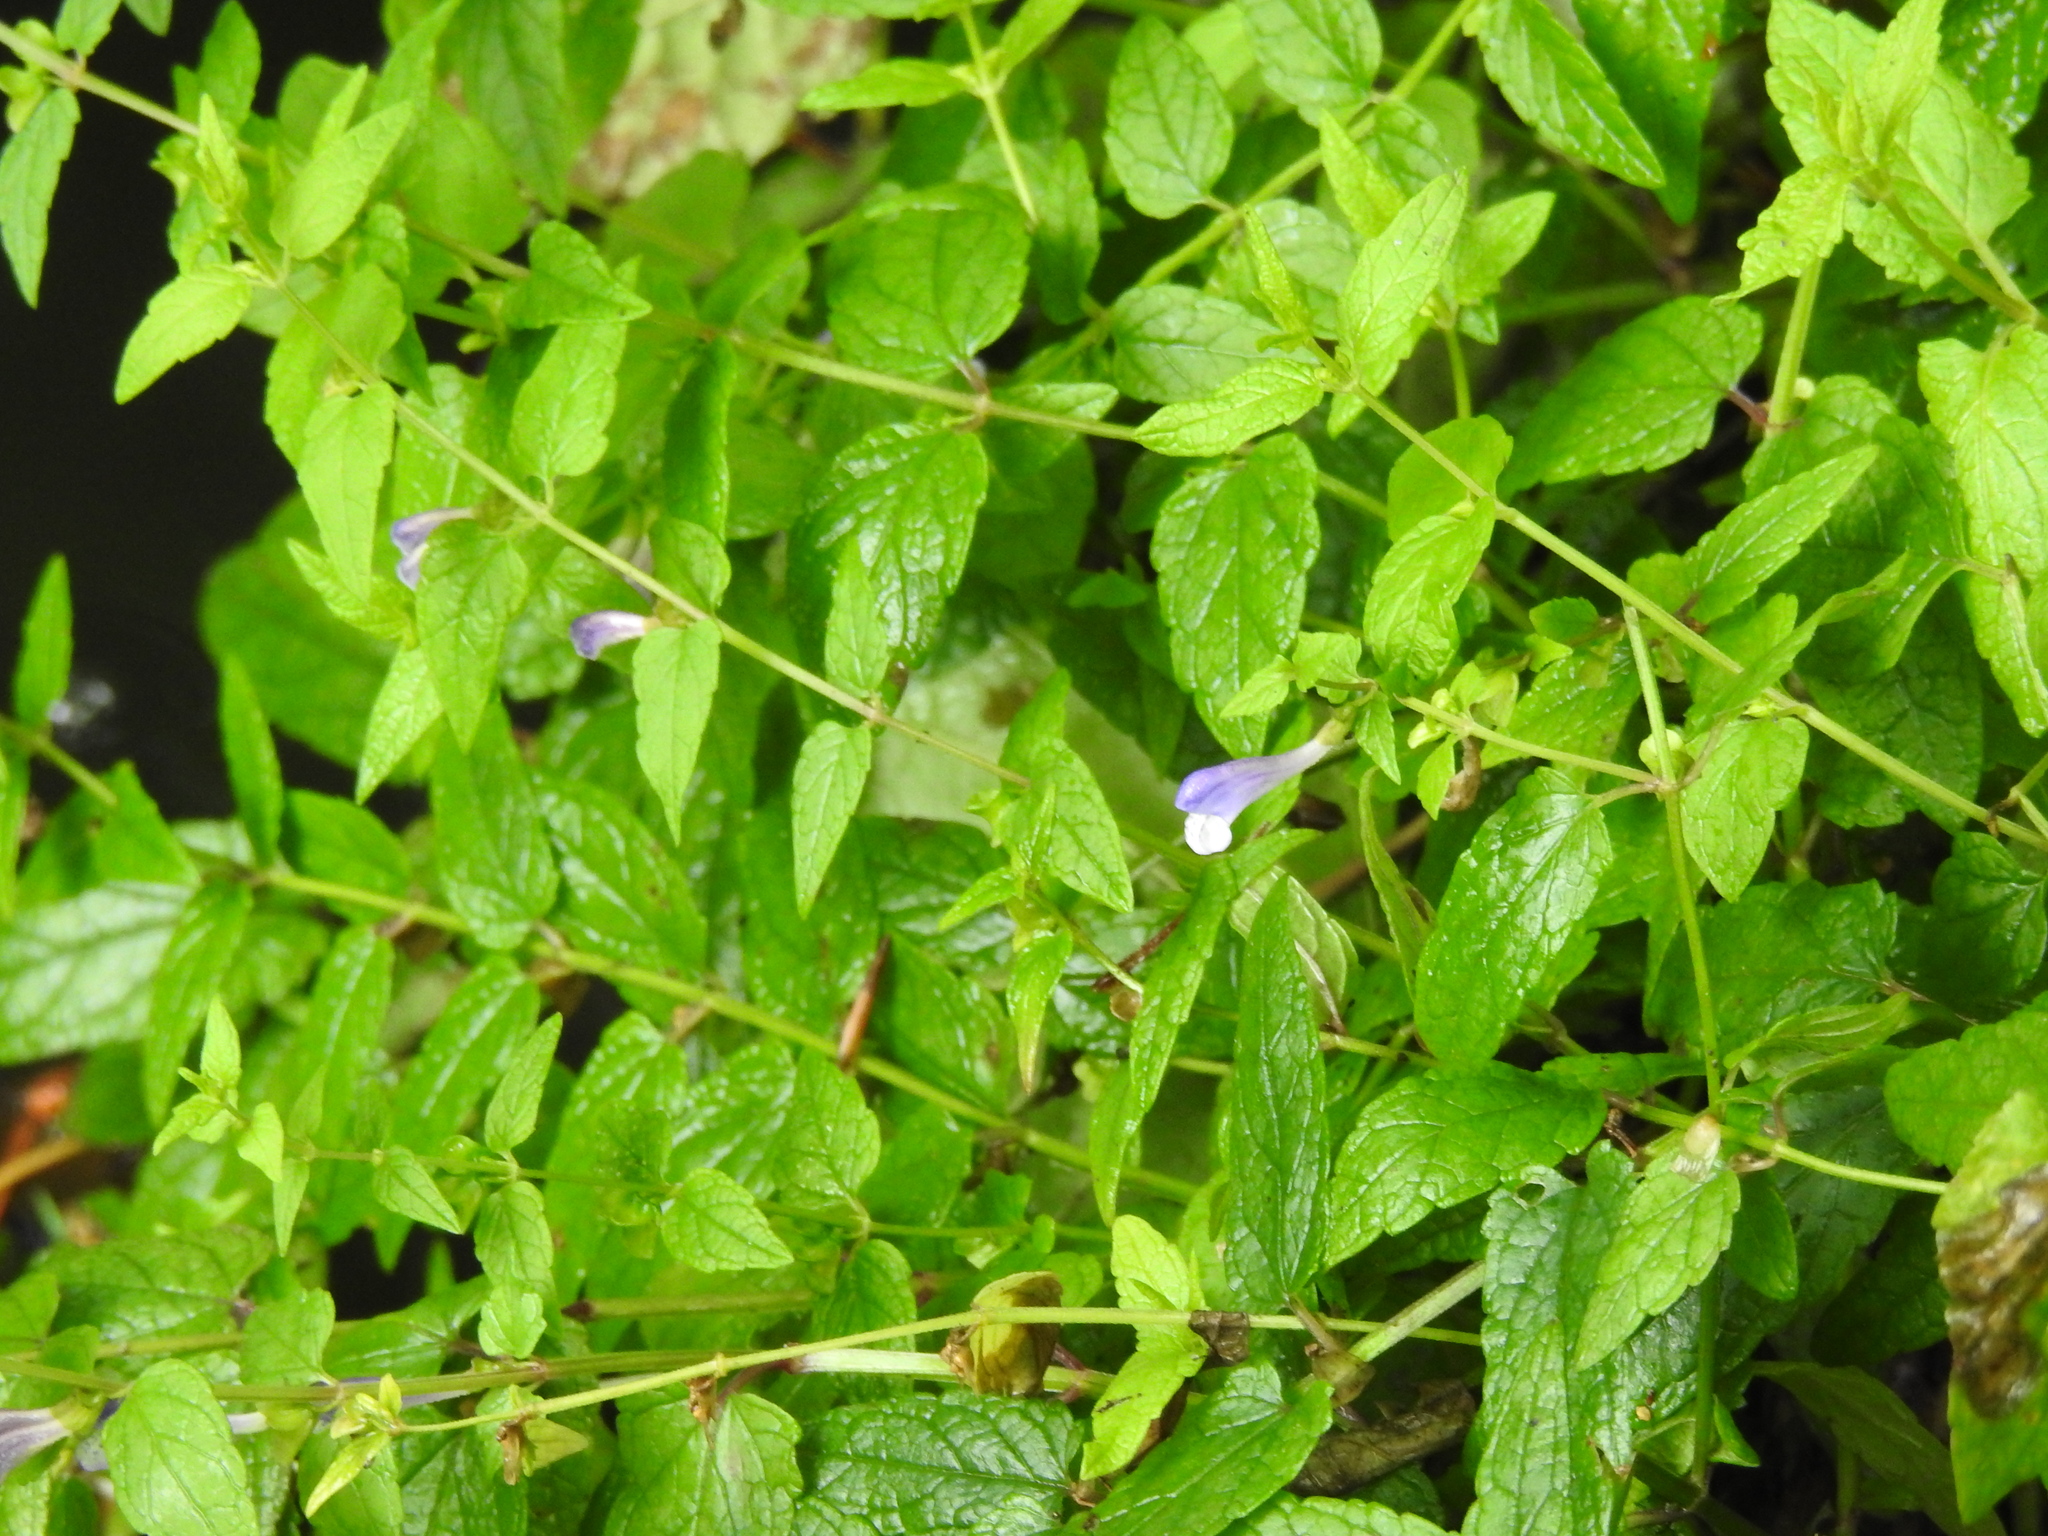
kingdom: Plantae
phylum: Tracheophyta
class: Magnoliopsida
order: Lamiales
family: Lamiaceae
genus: Scutellaria
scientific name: Scutellaria galericulata
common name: Skullcap
